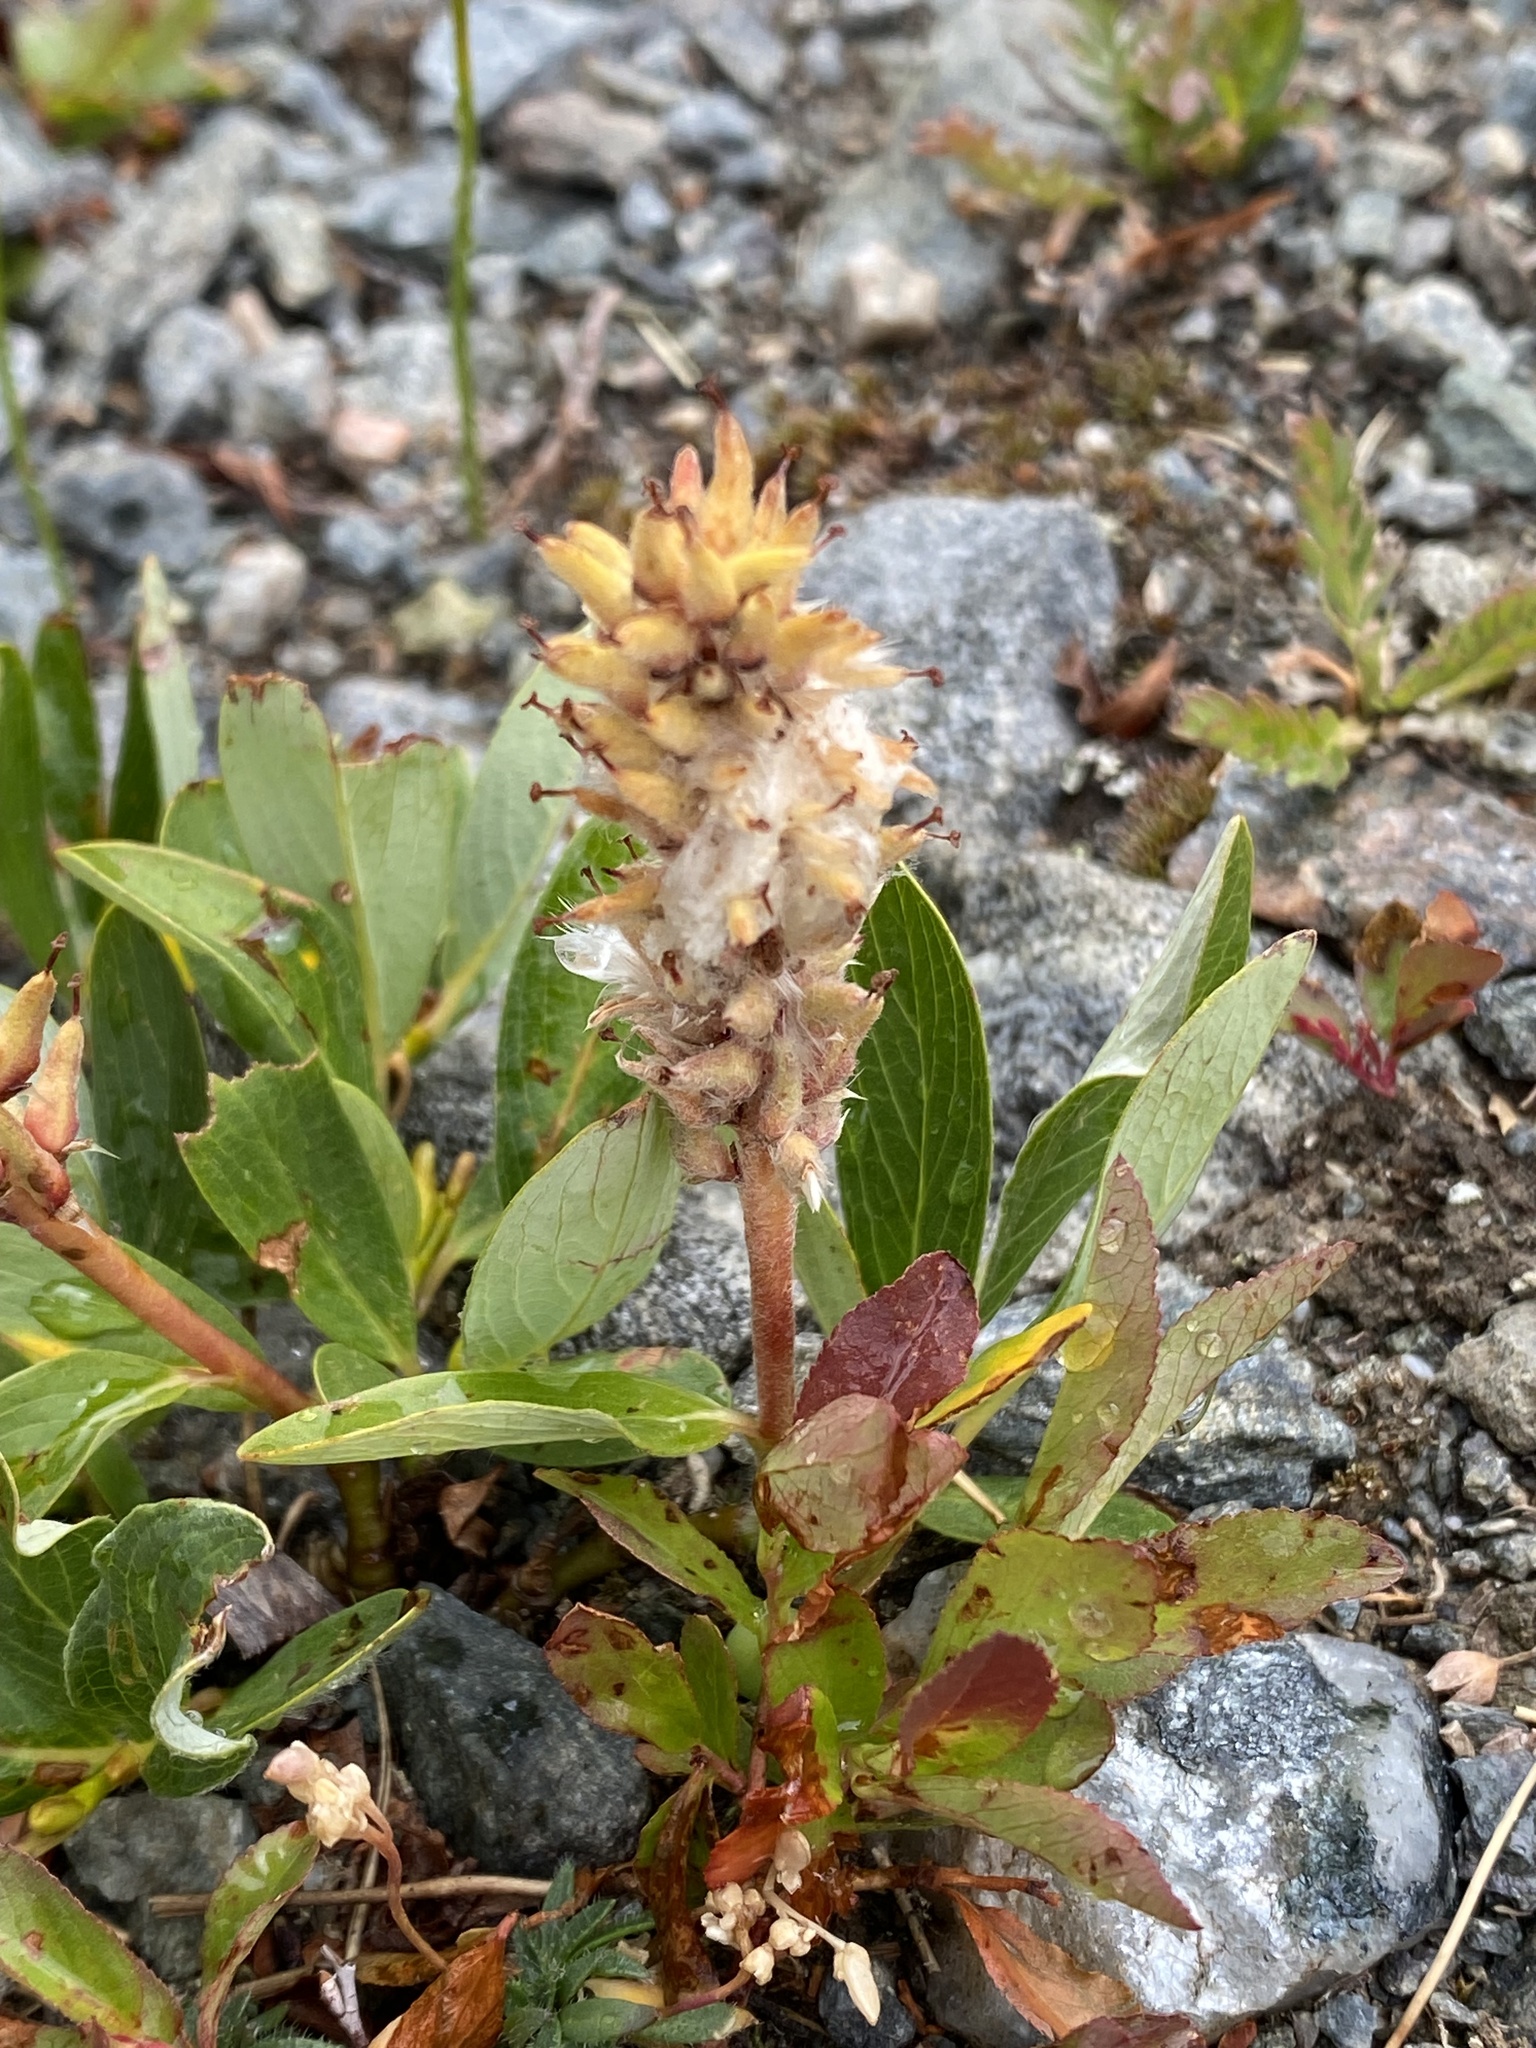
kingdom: Plantae
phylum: Tracheophyta
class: Magnoliopsida
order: Malpighiales
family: Salicaceae
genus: Salix
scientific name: Salix petrophila
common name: Rocky mountain willow
